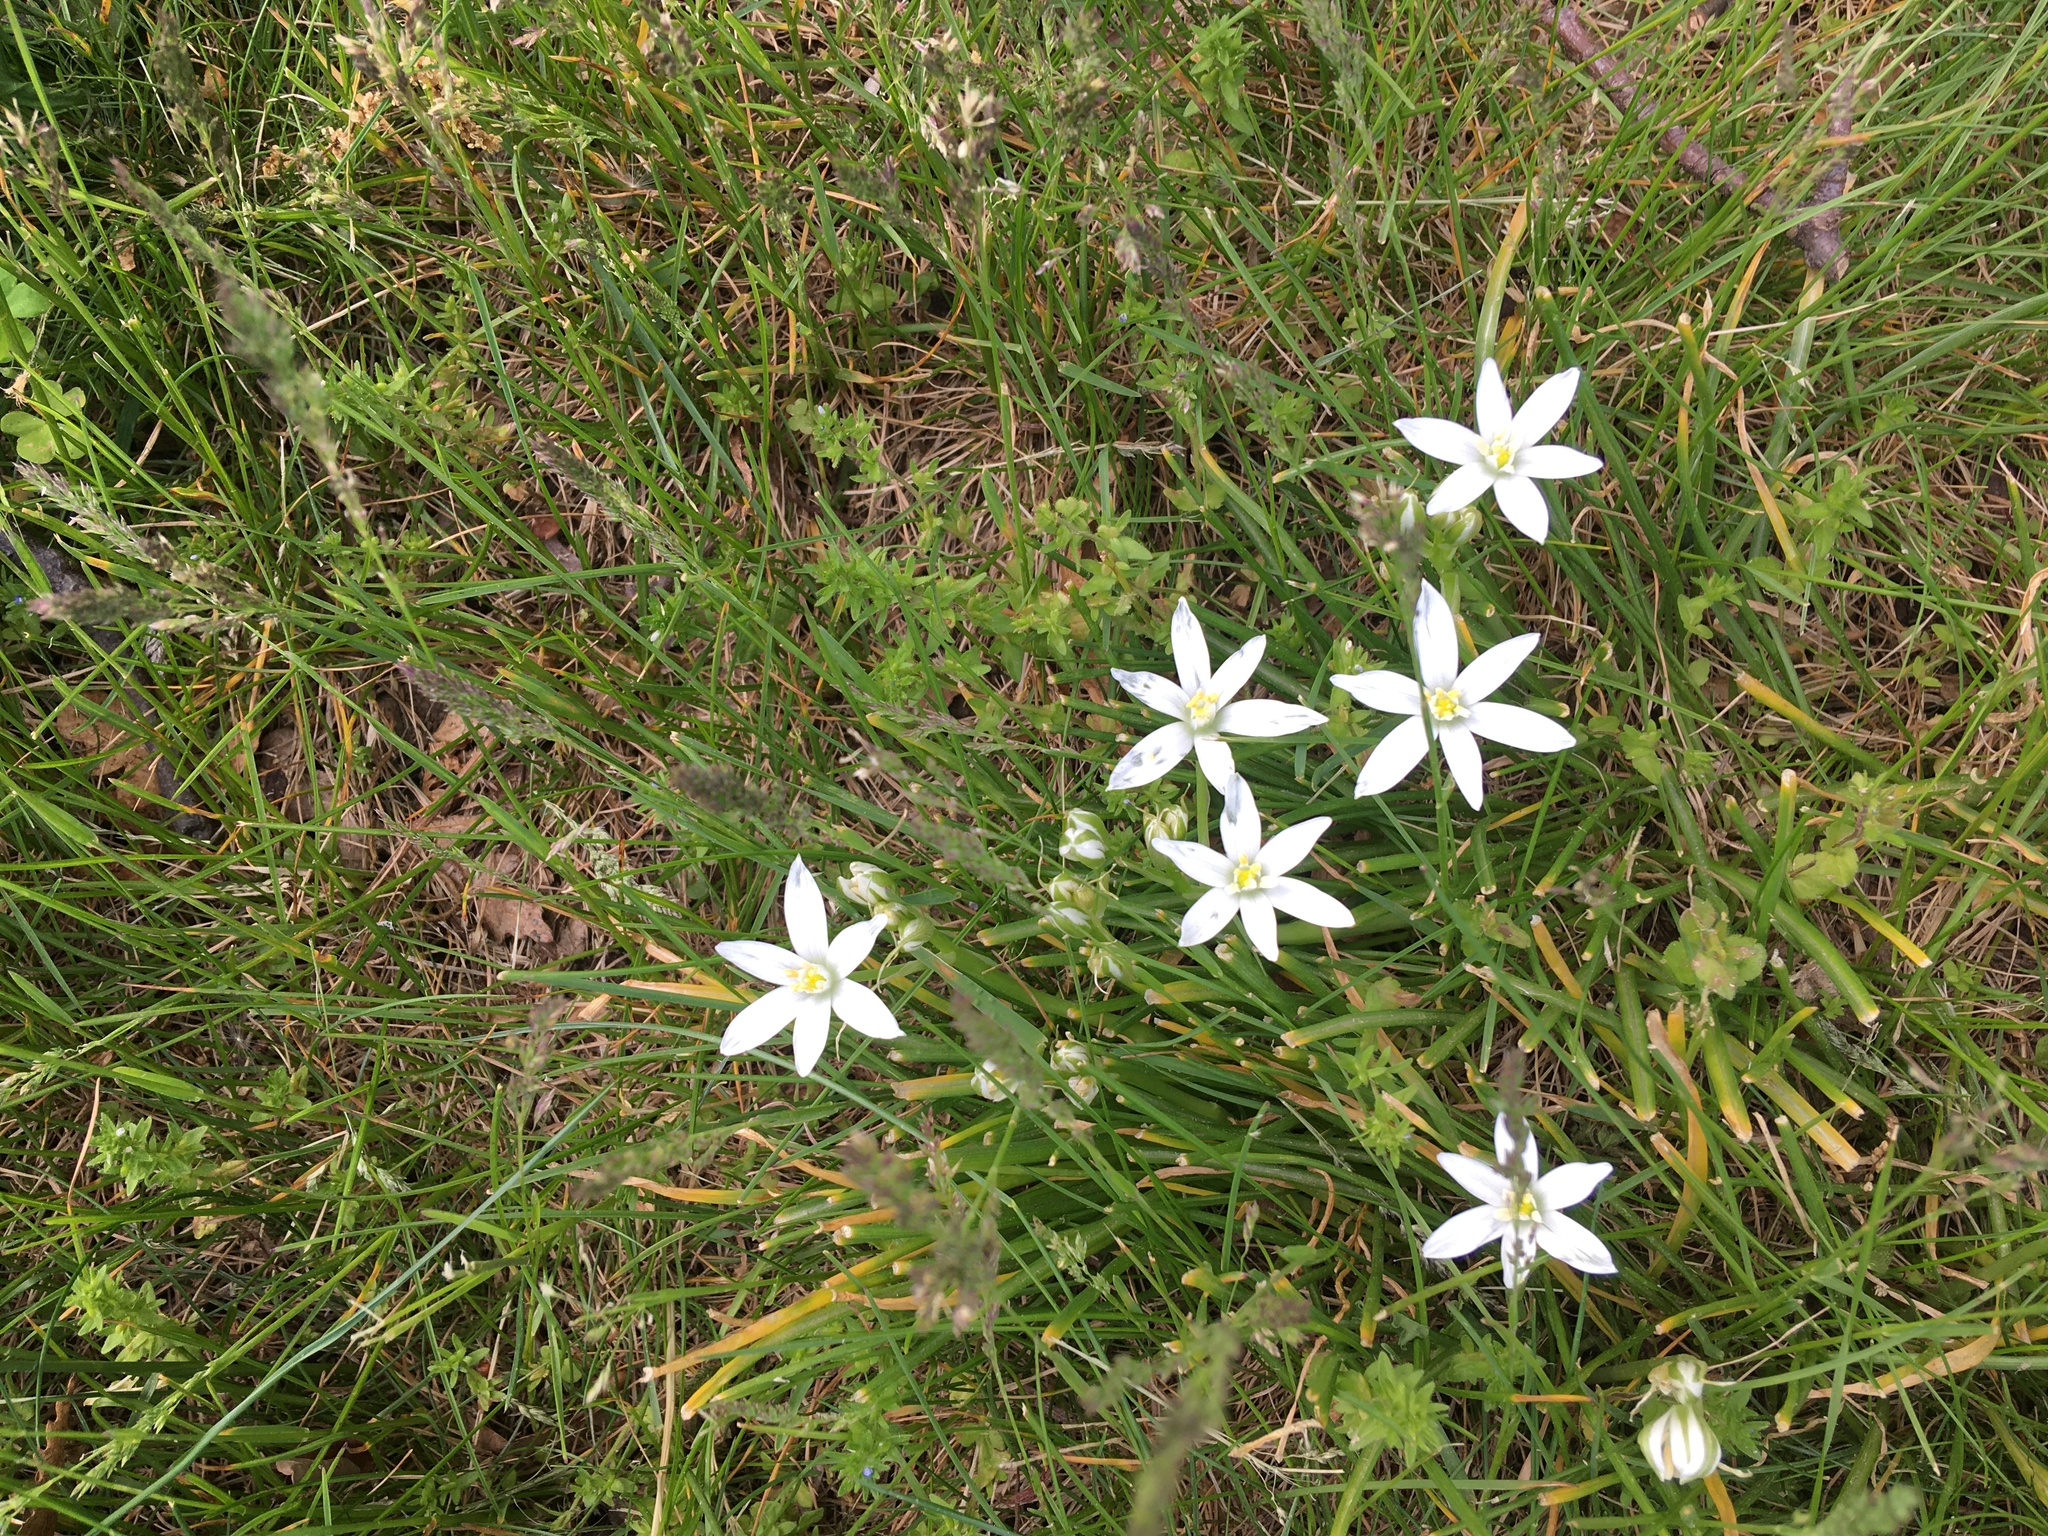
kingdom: Plantae
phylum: Tracheophyta
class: Liliopsida
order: Asparagales
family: Asparagaceae
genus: Ornithogalum
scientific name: Ornithogalum umbellatum
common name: Garden star-of-bethlehem
